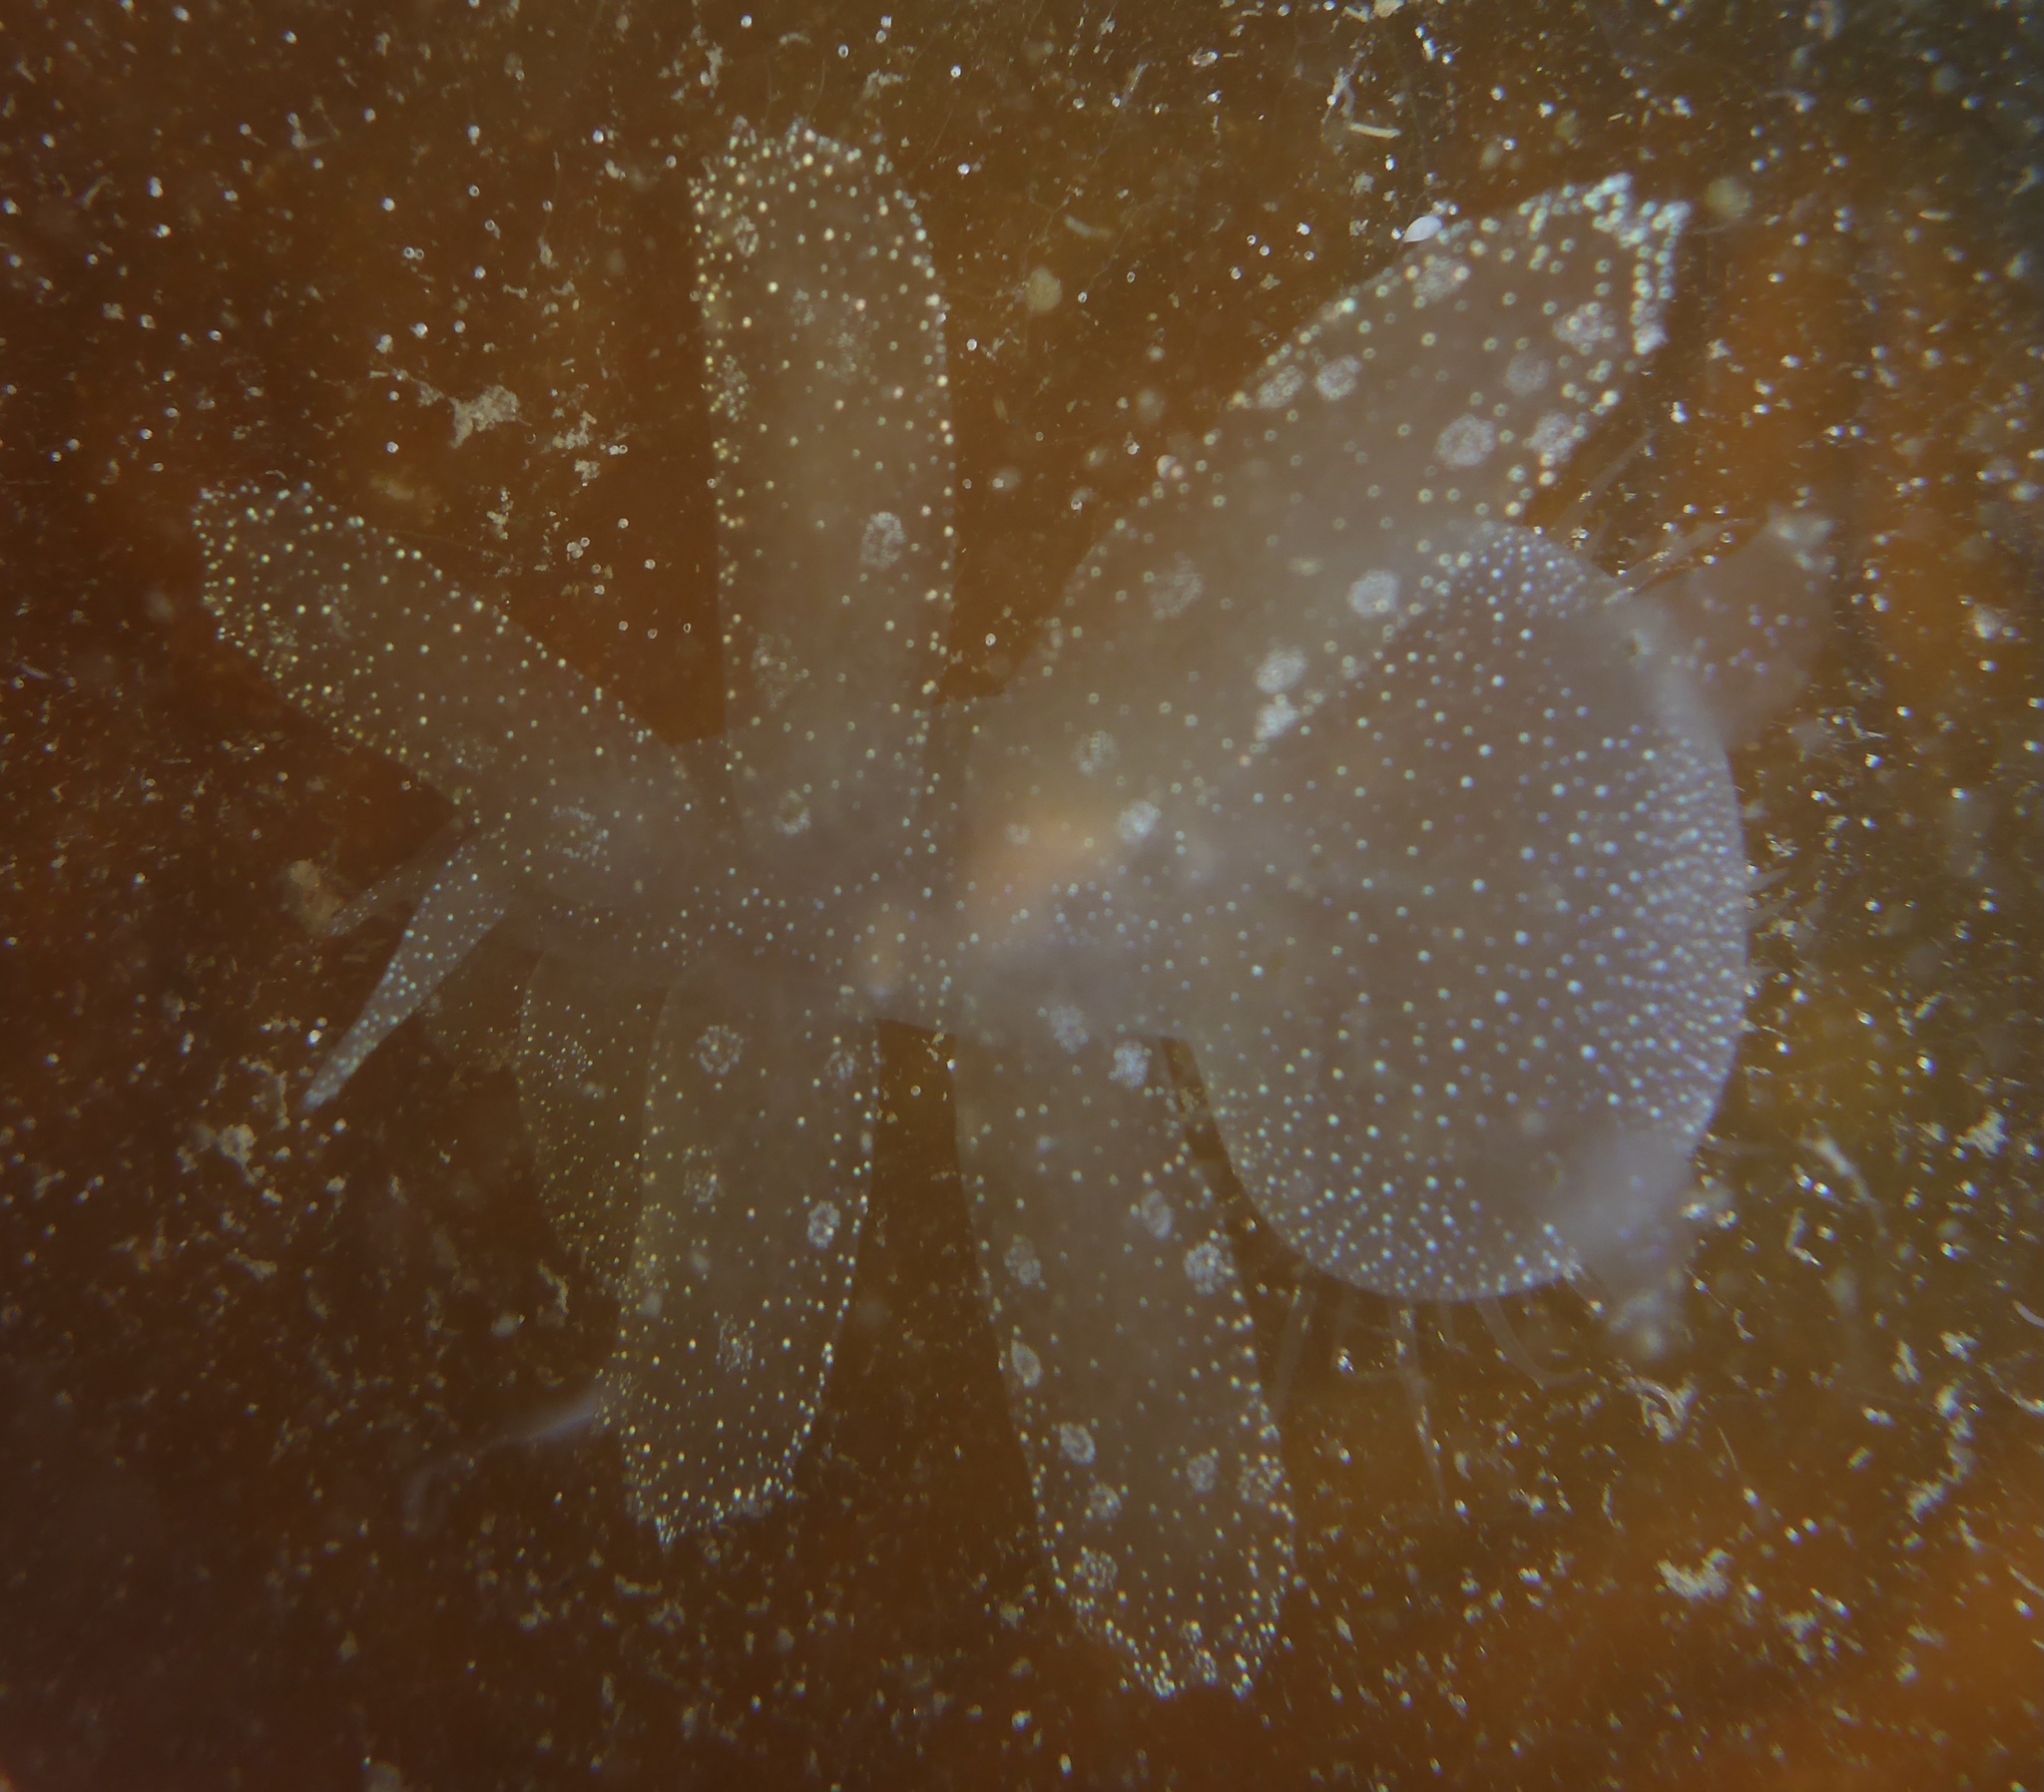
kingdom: Animalia
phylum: Mollusca
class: Gastropoda
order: Nudibranchia
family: Tethydidae
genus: Melibe
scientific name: Melibe leonina
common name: Lion nudibranch
